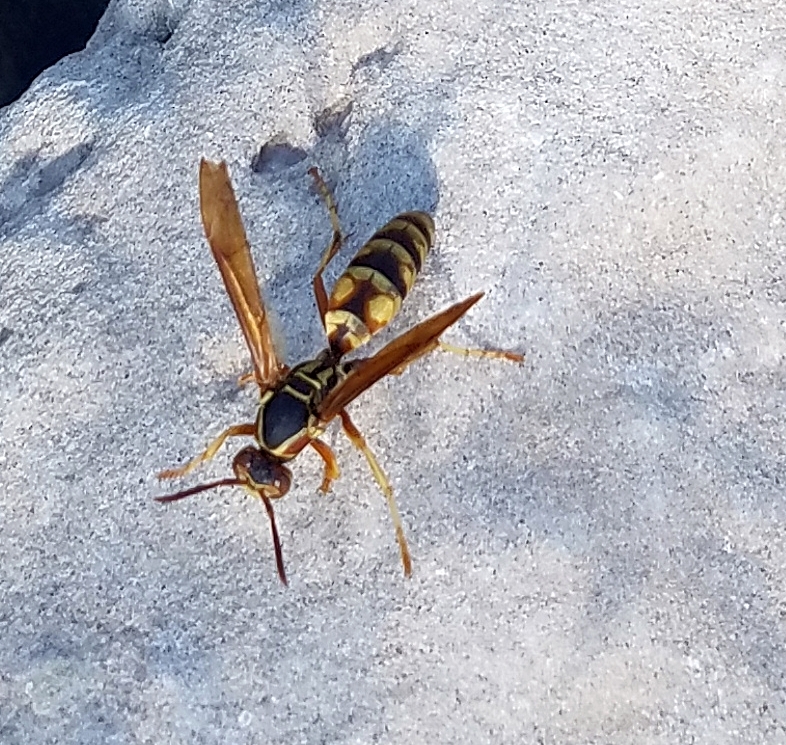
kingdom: Animalia
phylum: Arthropoda
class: Insecta
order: Hymenoptera
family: Eumenidae
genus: Polistes
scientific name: Polistes aurifer
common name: Paper wasp
